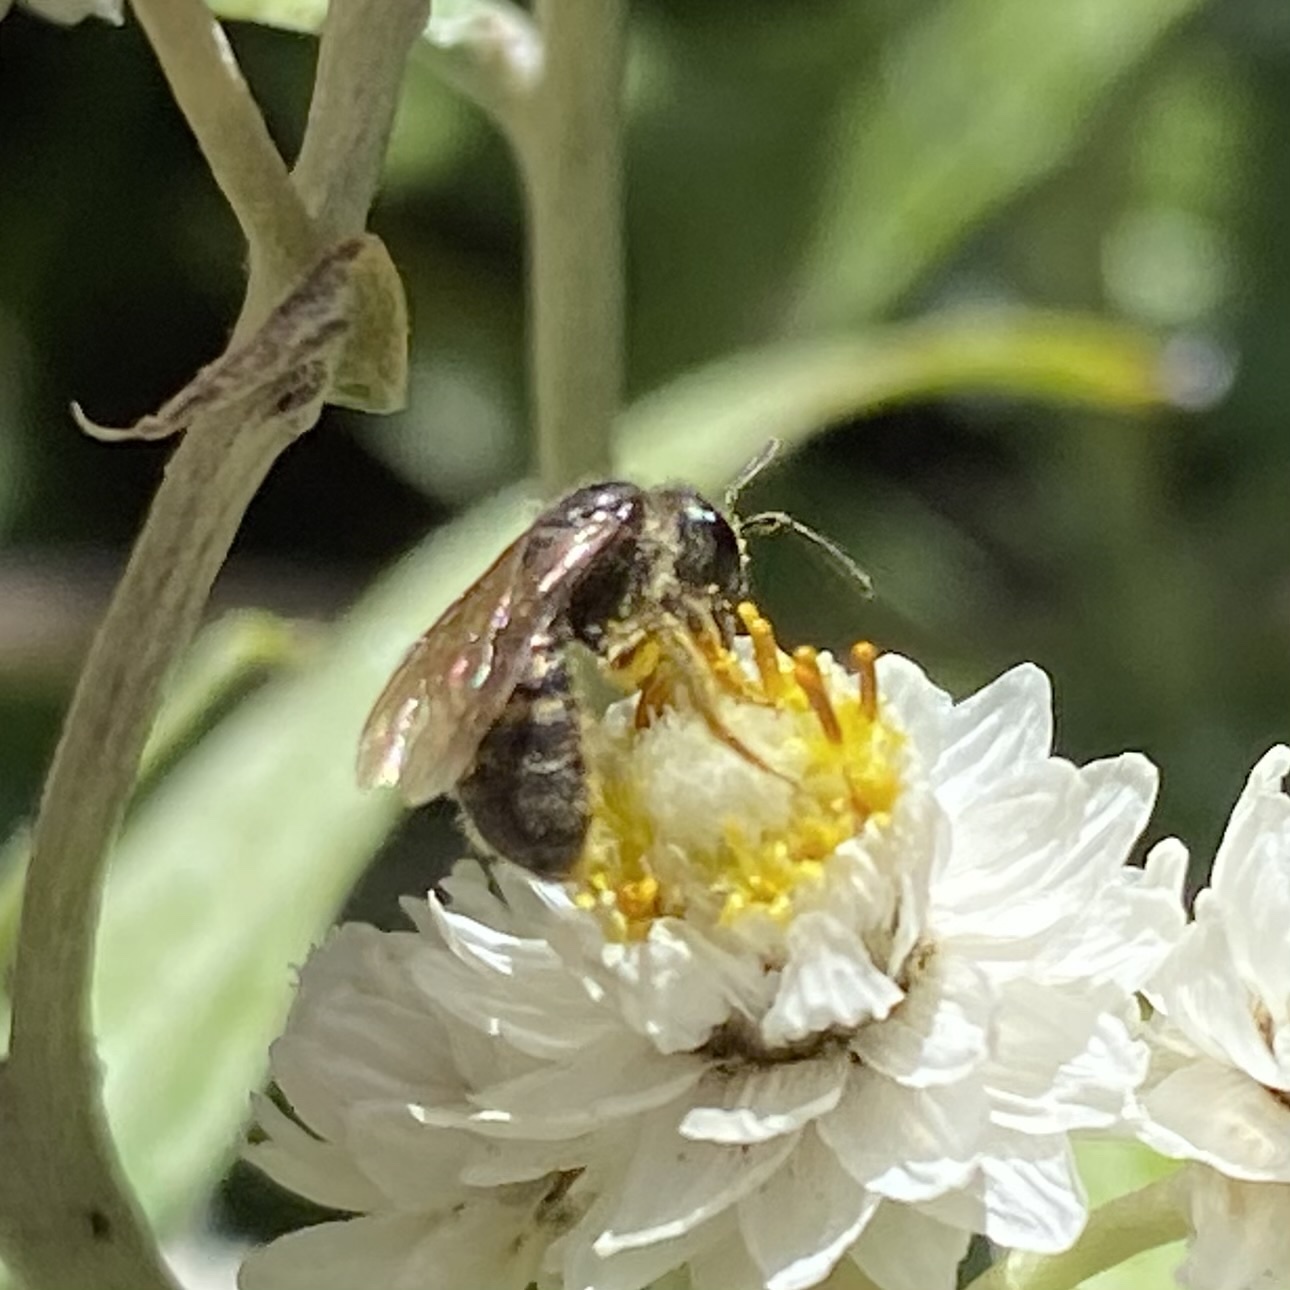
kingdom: Animalia
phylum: Arthropoda
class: Insecta
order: Hymenoptera
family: Halictidae
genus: Dialictus
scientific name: Dialictus
